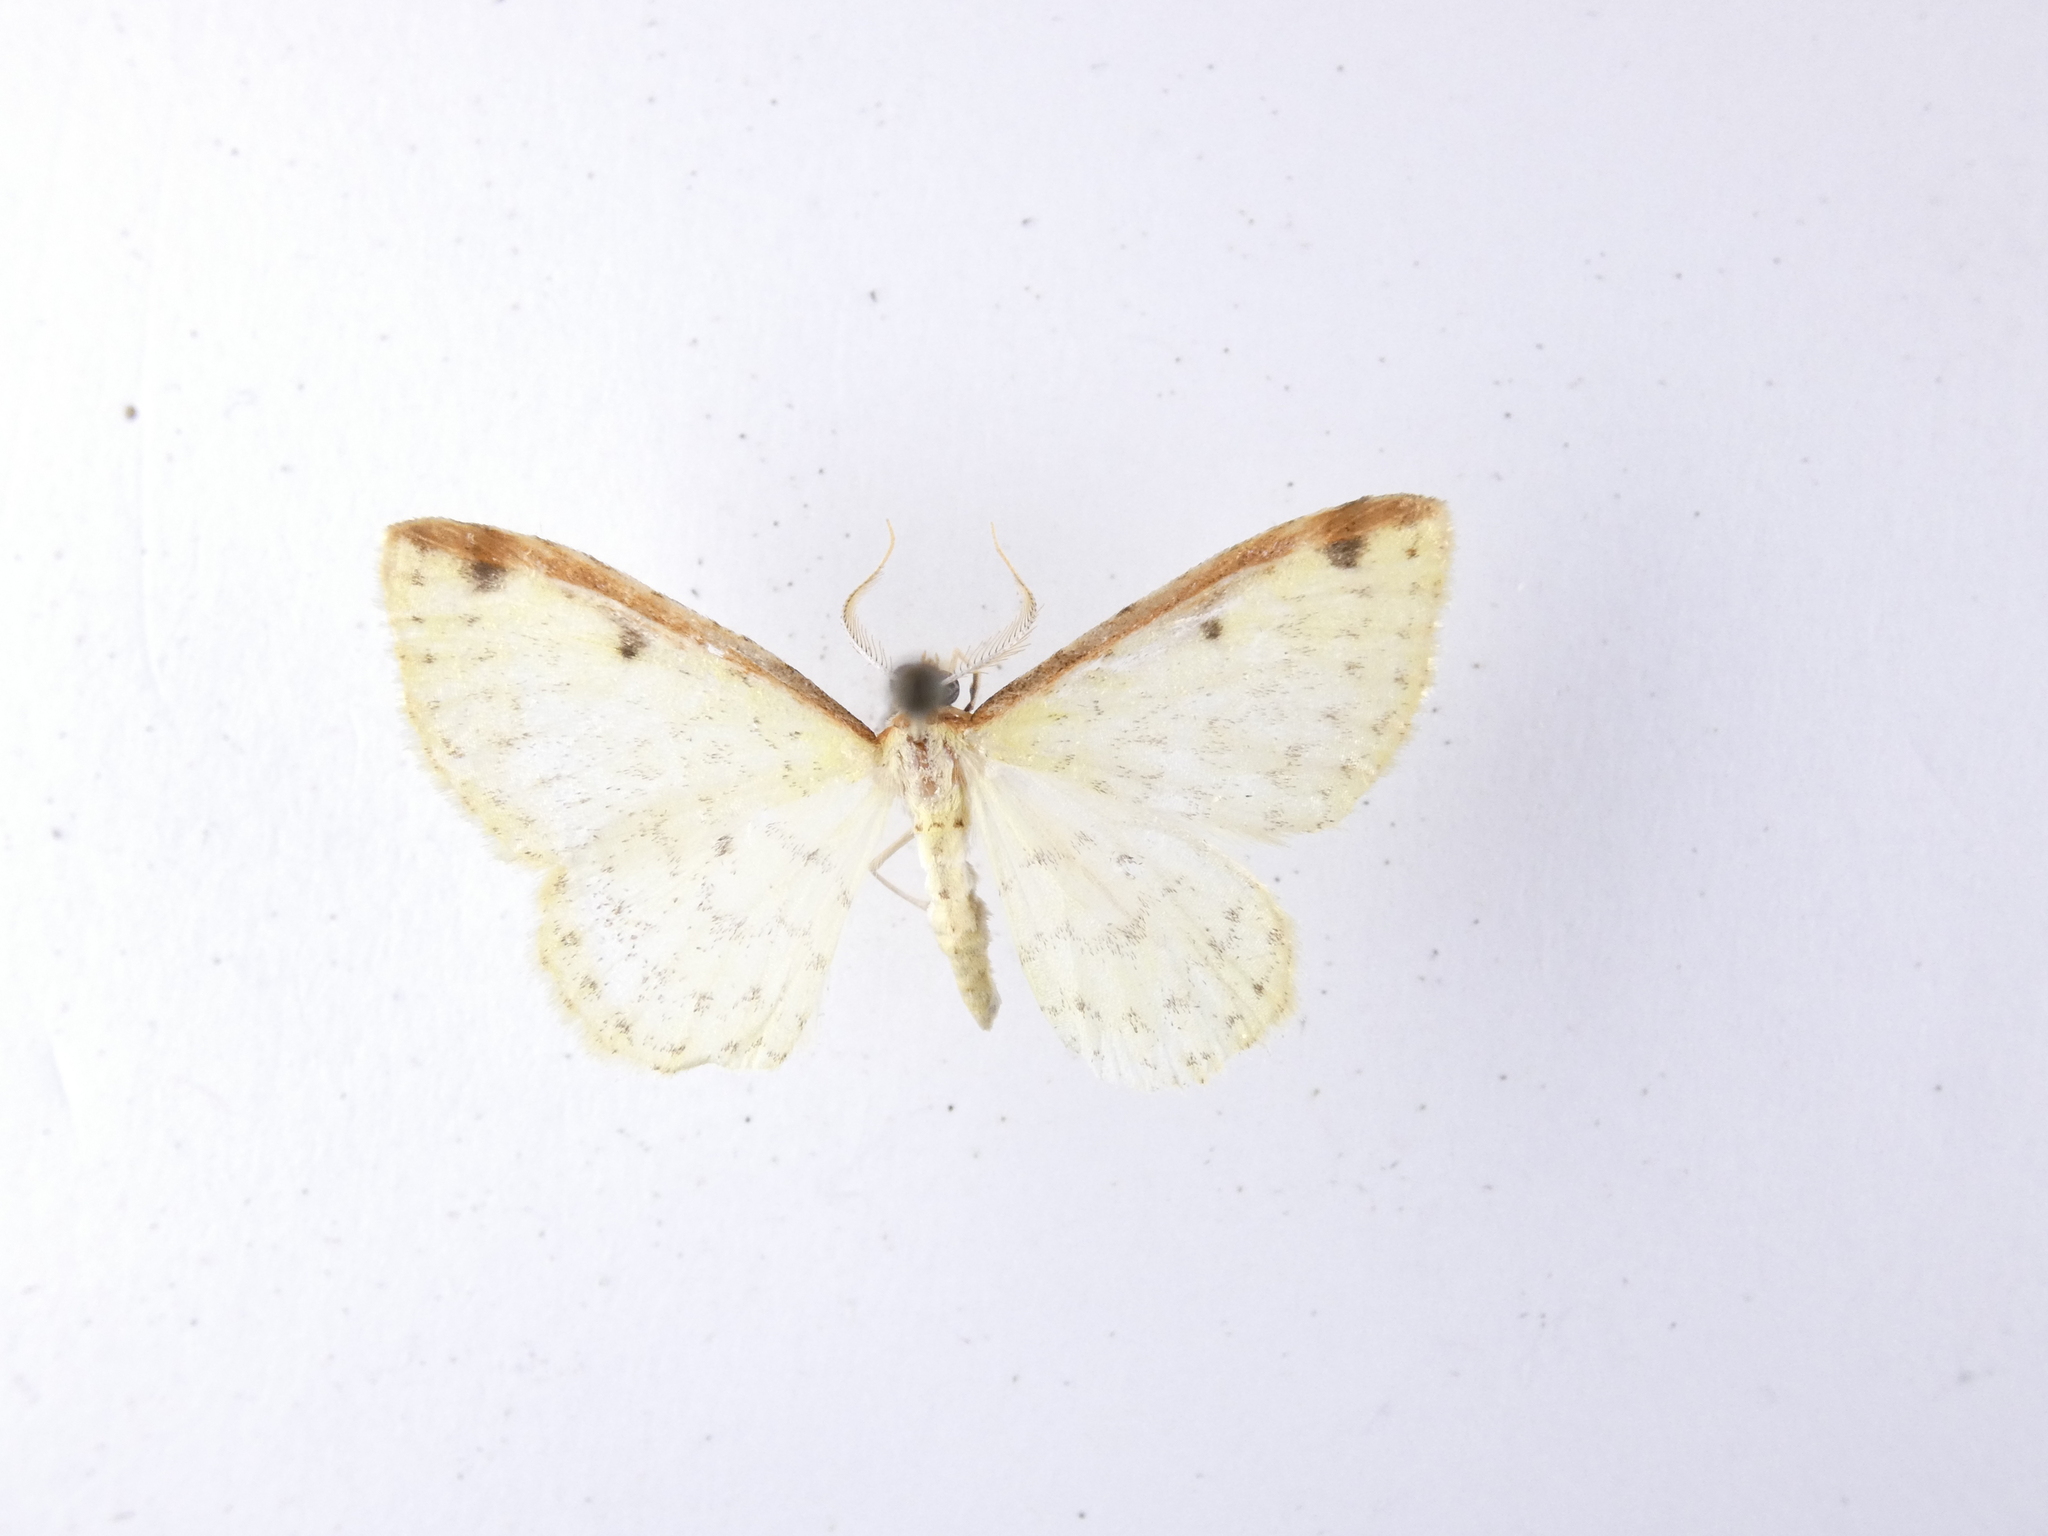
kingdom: Animalia
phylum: Arthropoda
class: Insecta
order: Lepidoptera
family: Geometridae
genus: Epiphryne
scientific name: Epiphryne undosata
